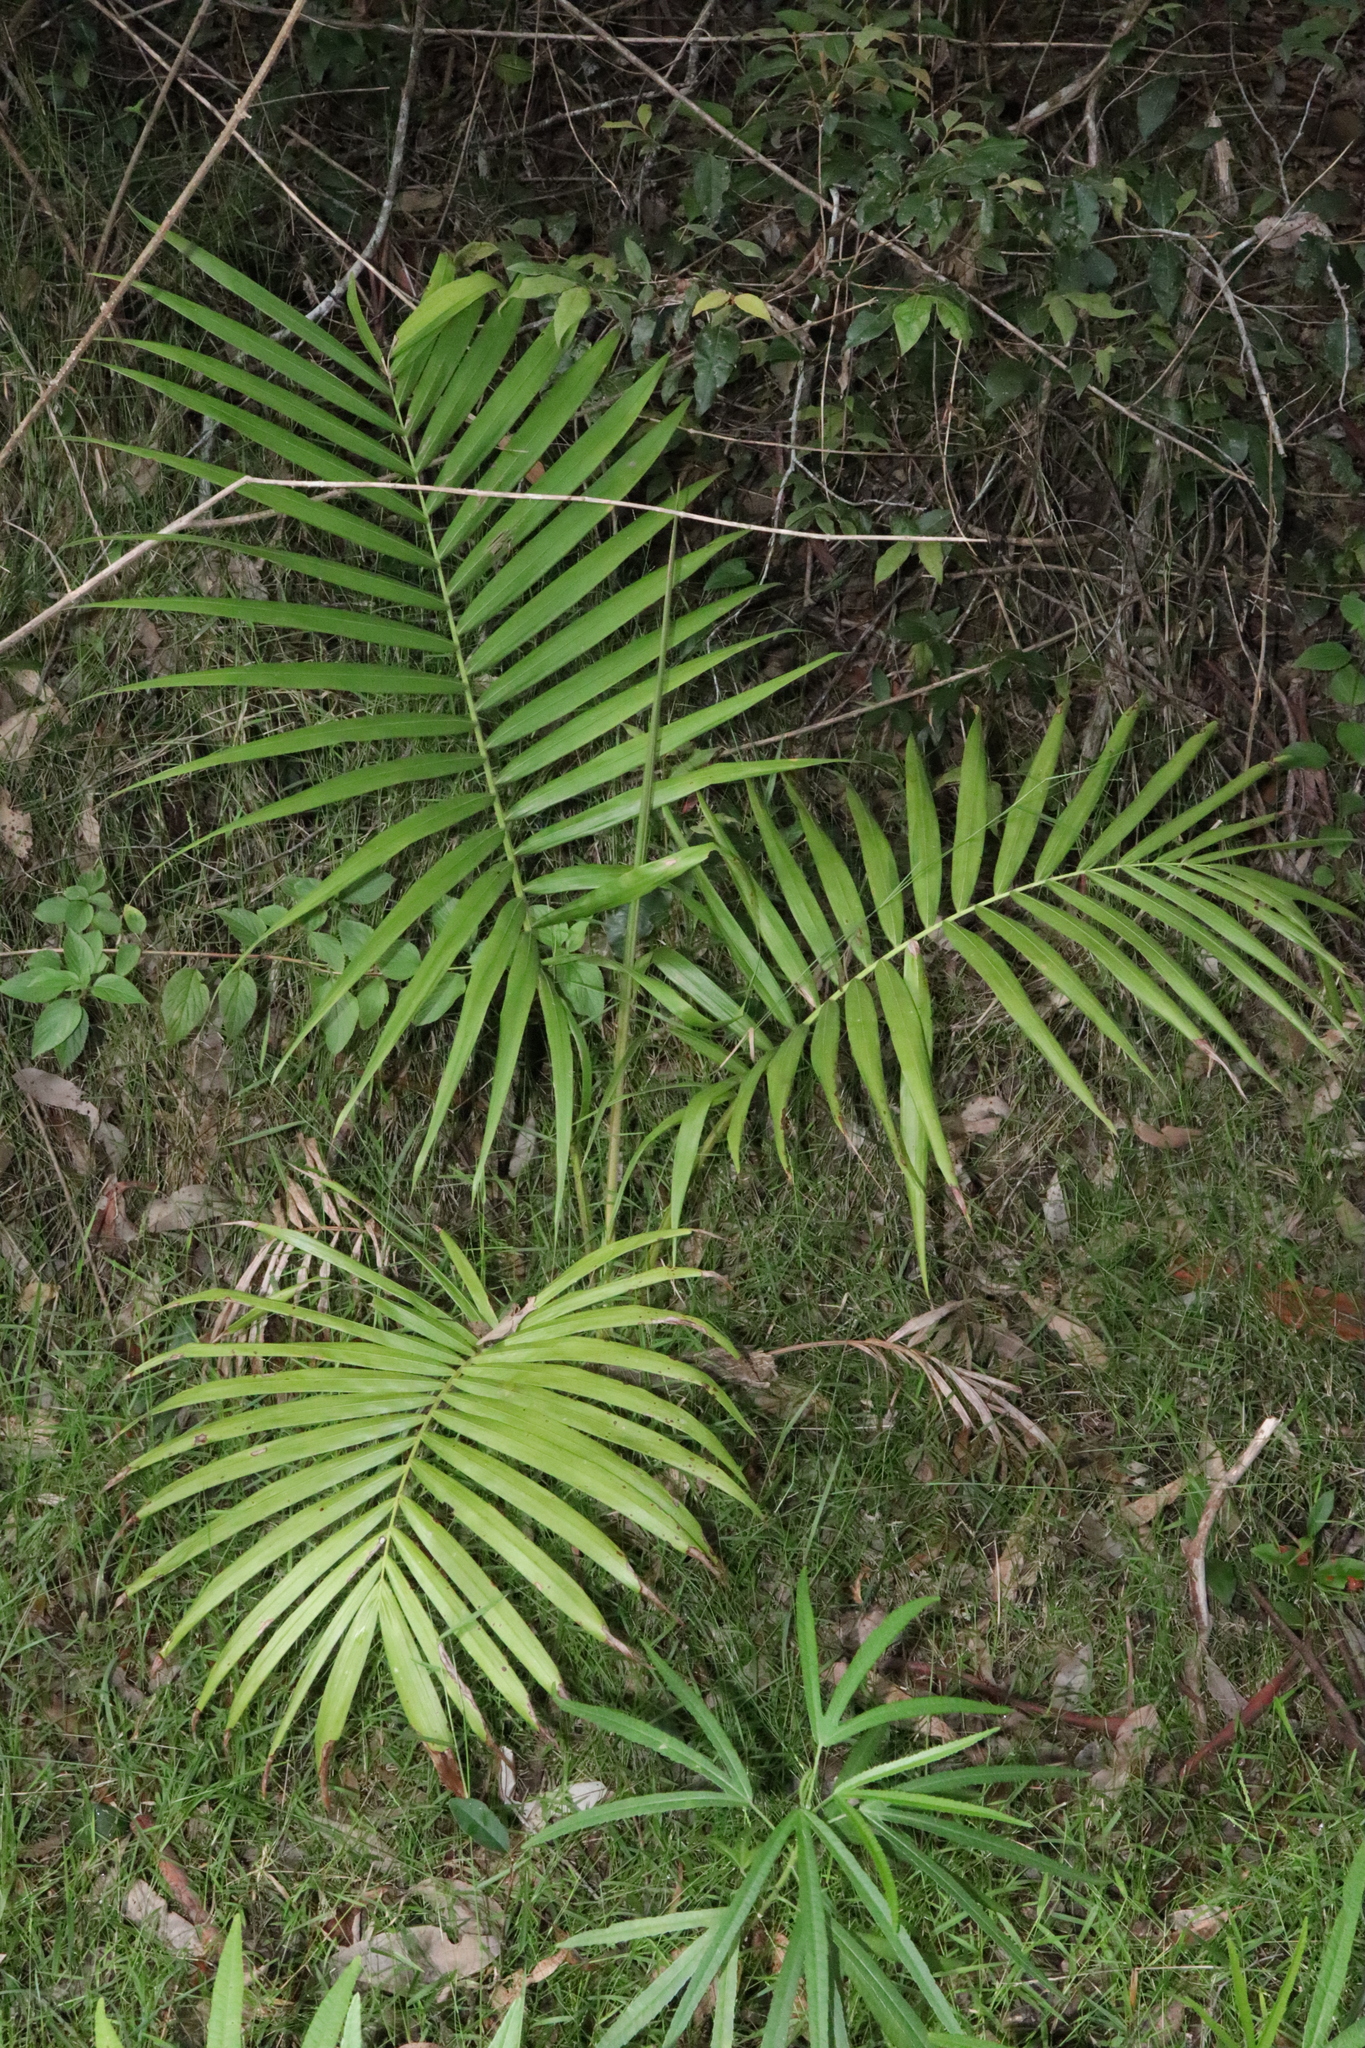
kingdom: Plantae
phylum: Tracheophyta
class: Liliopsida
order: Arecales
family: Arecaceae
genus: Archontophoenix
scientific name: Archontophoenix cunninghamiana
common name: Piccabeen bangalow palm
